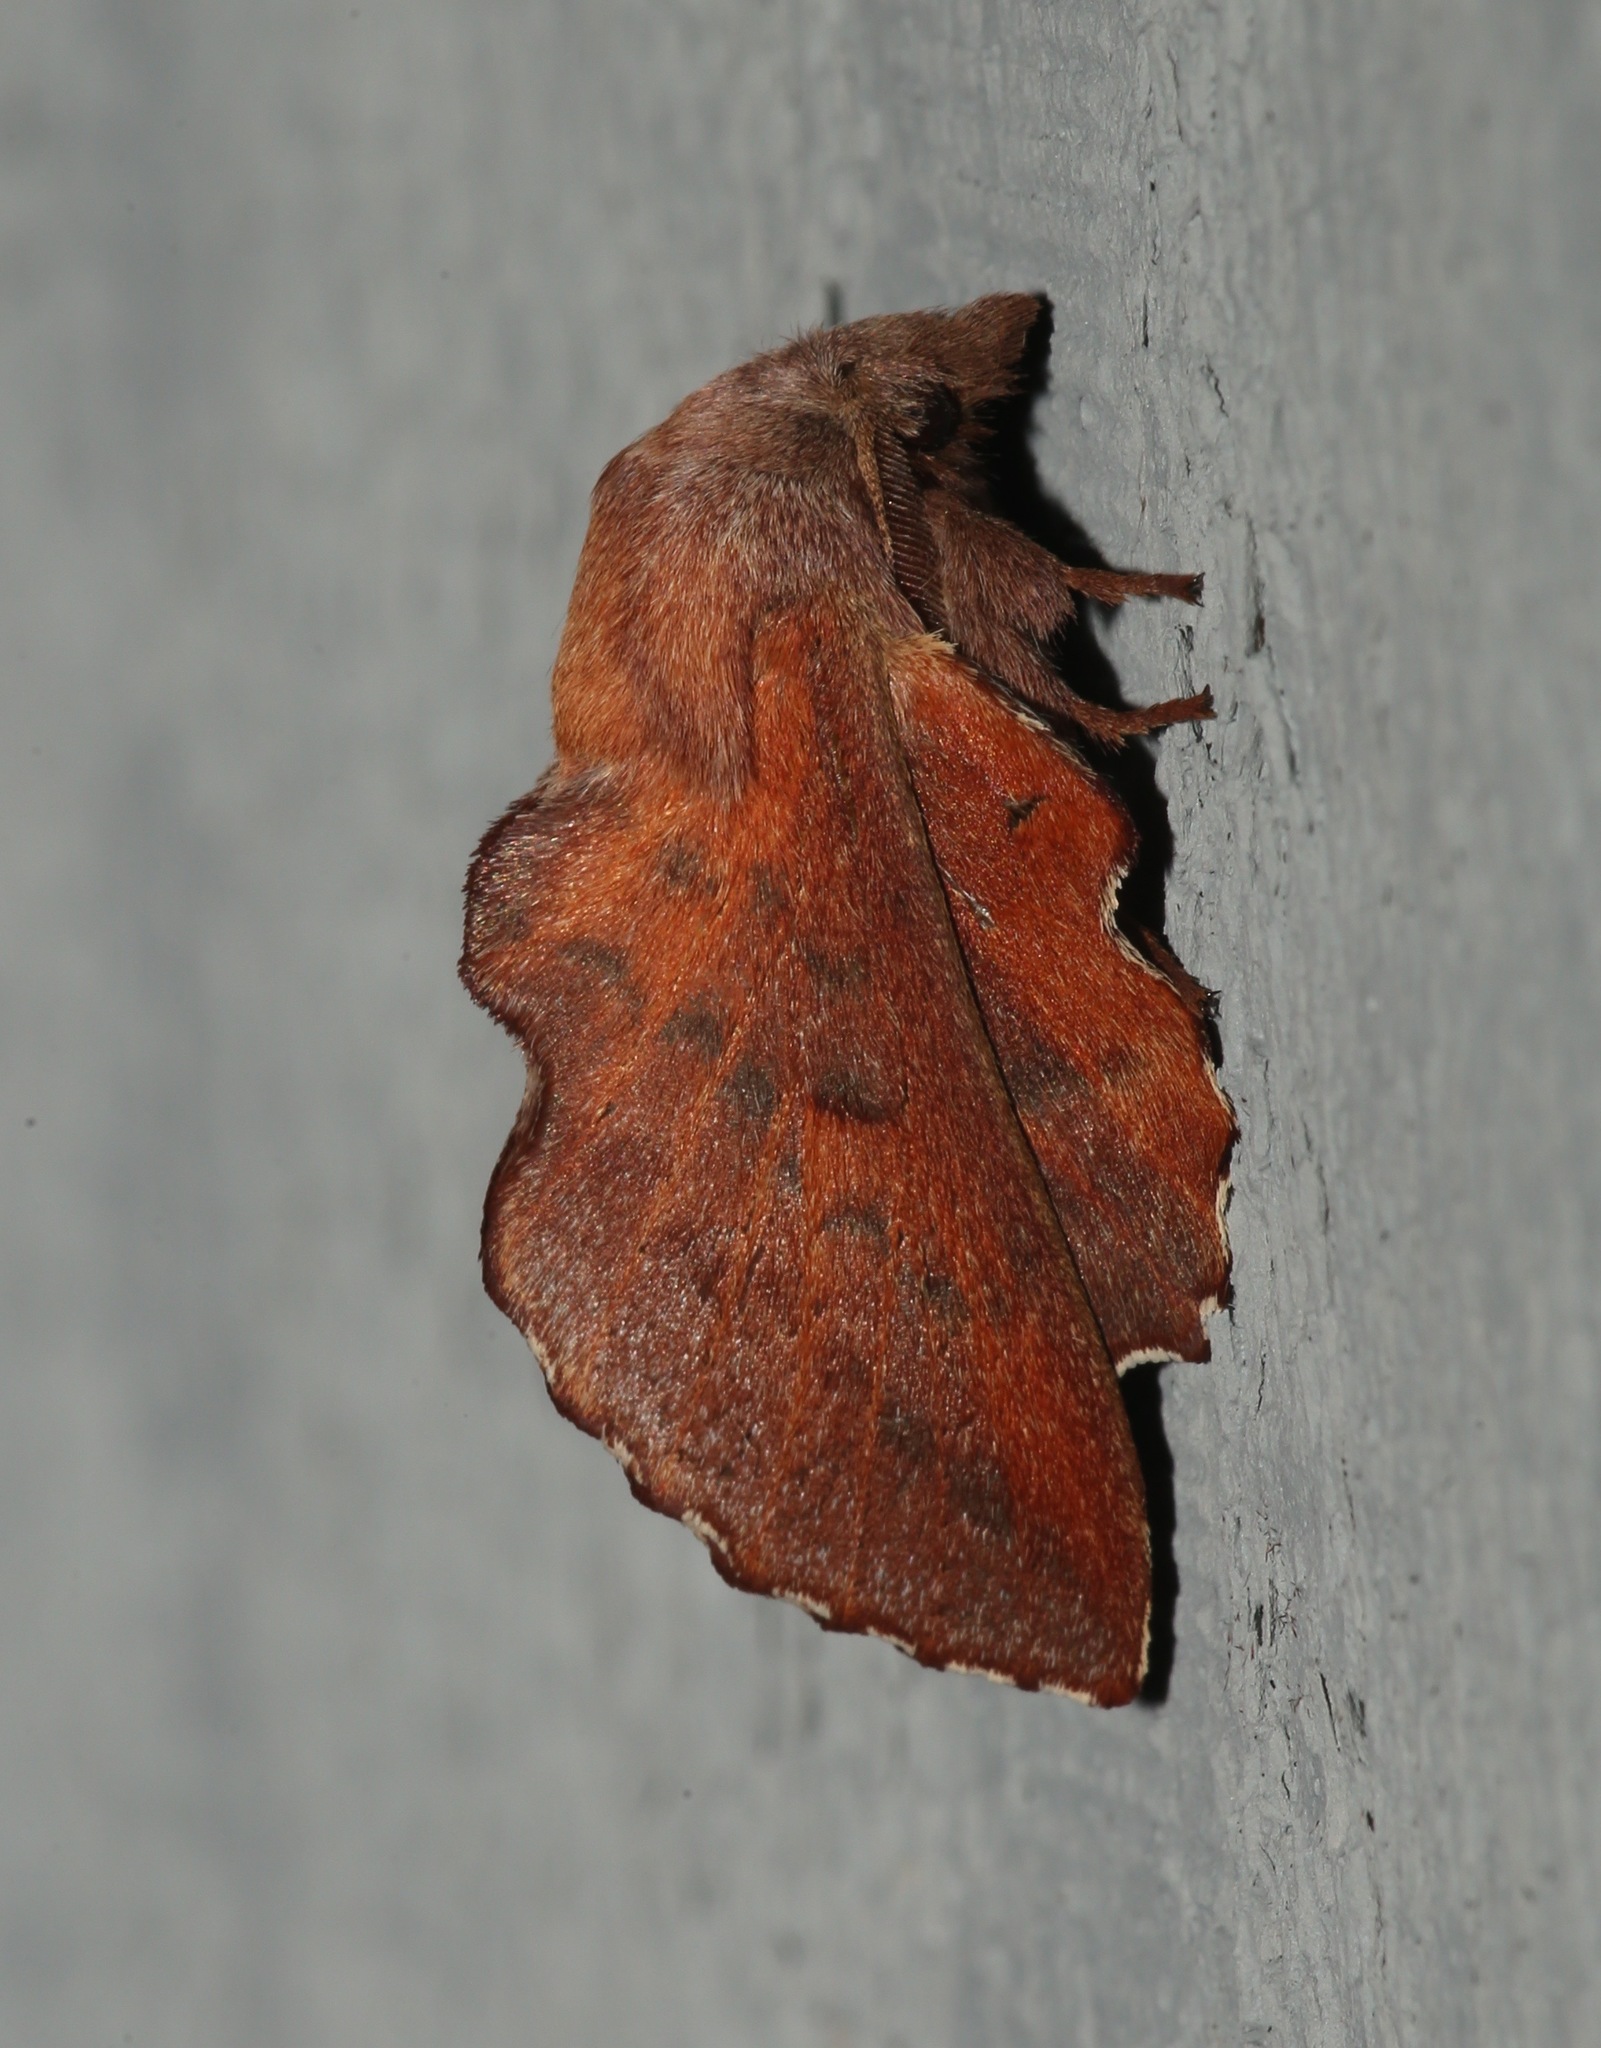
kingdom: Animalia
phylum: Arthropoda
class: Insecta
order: Lepidoptera
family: Lasiocampidae
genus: Phyllodesma
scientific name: Phyllodesma americana
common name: American lappet moth
